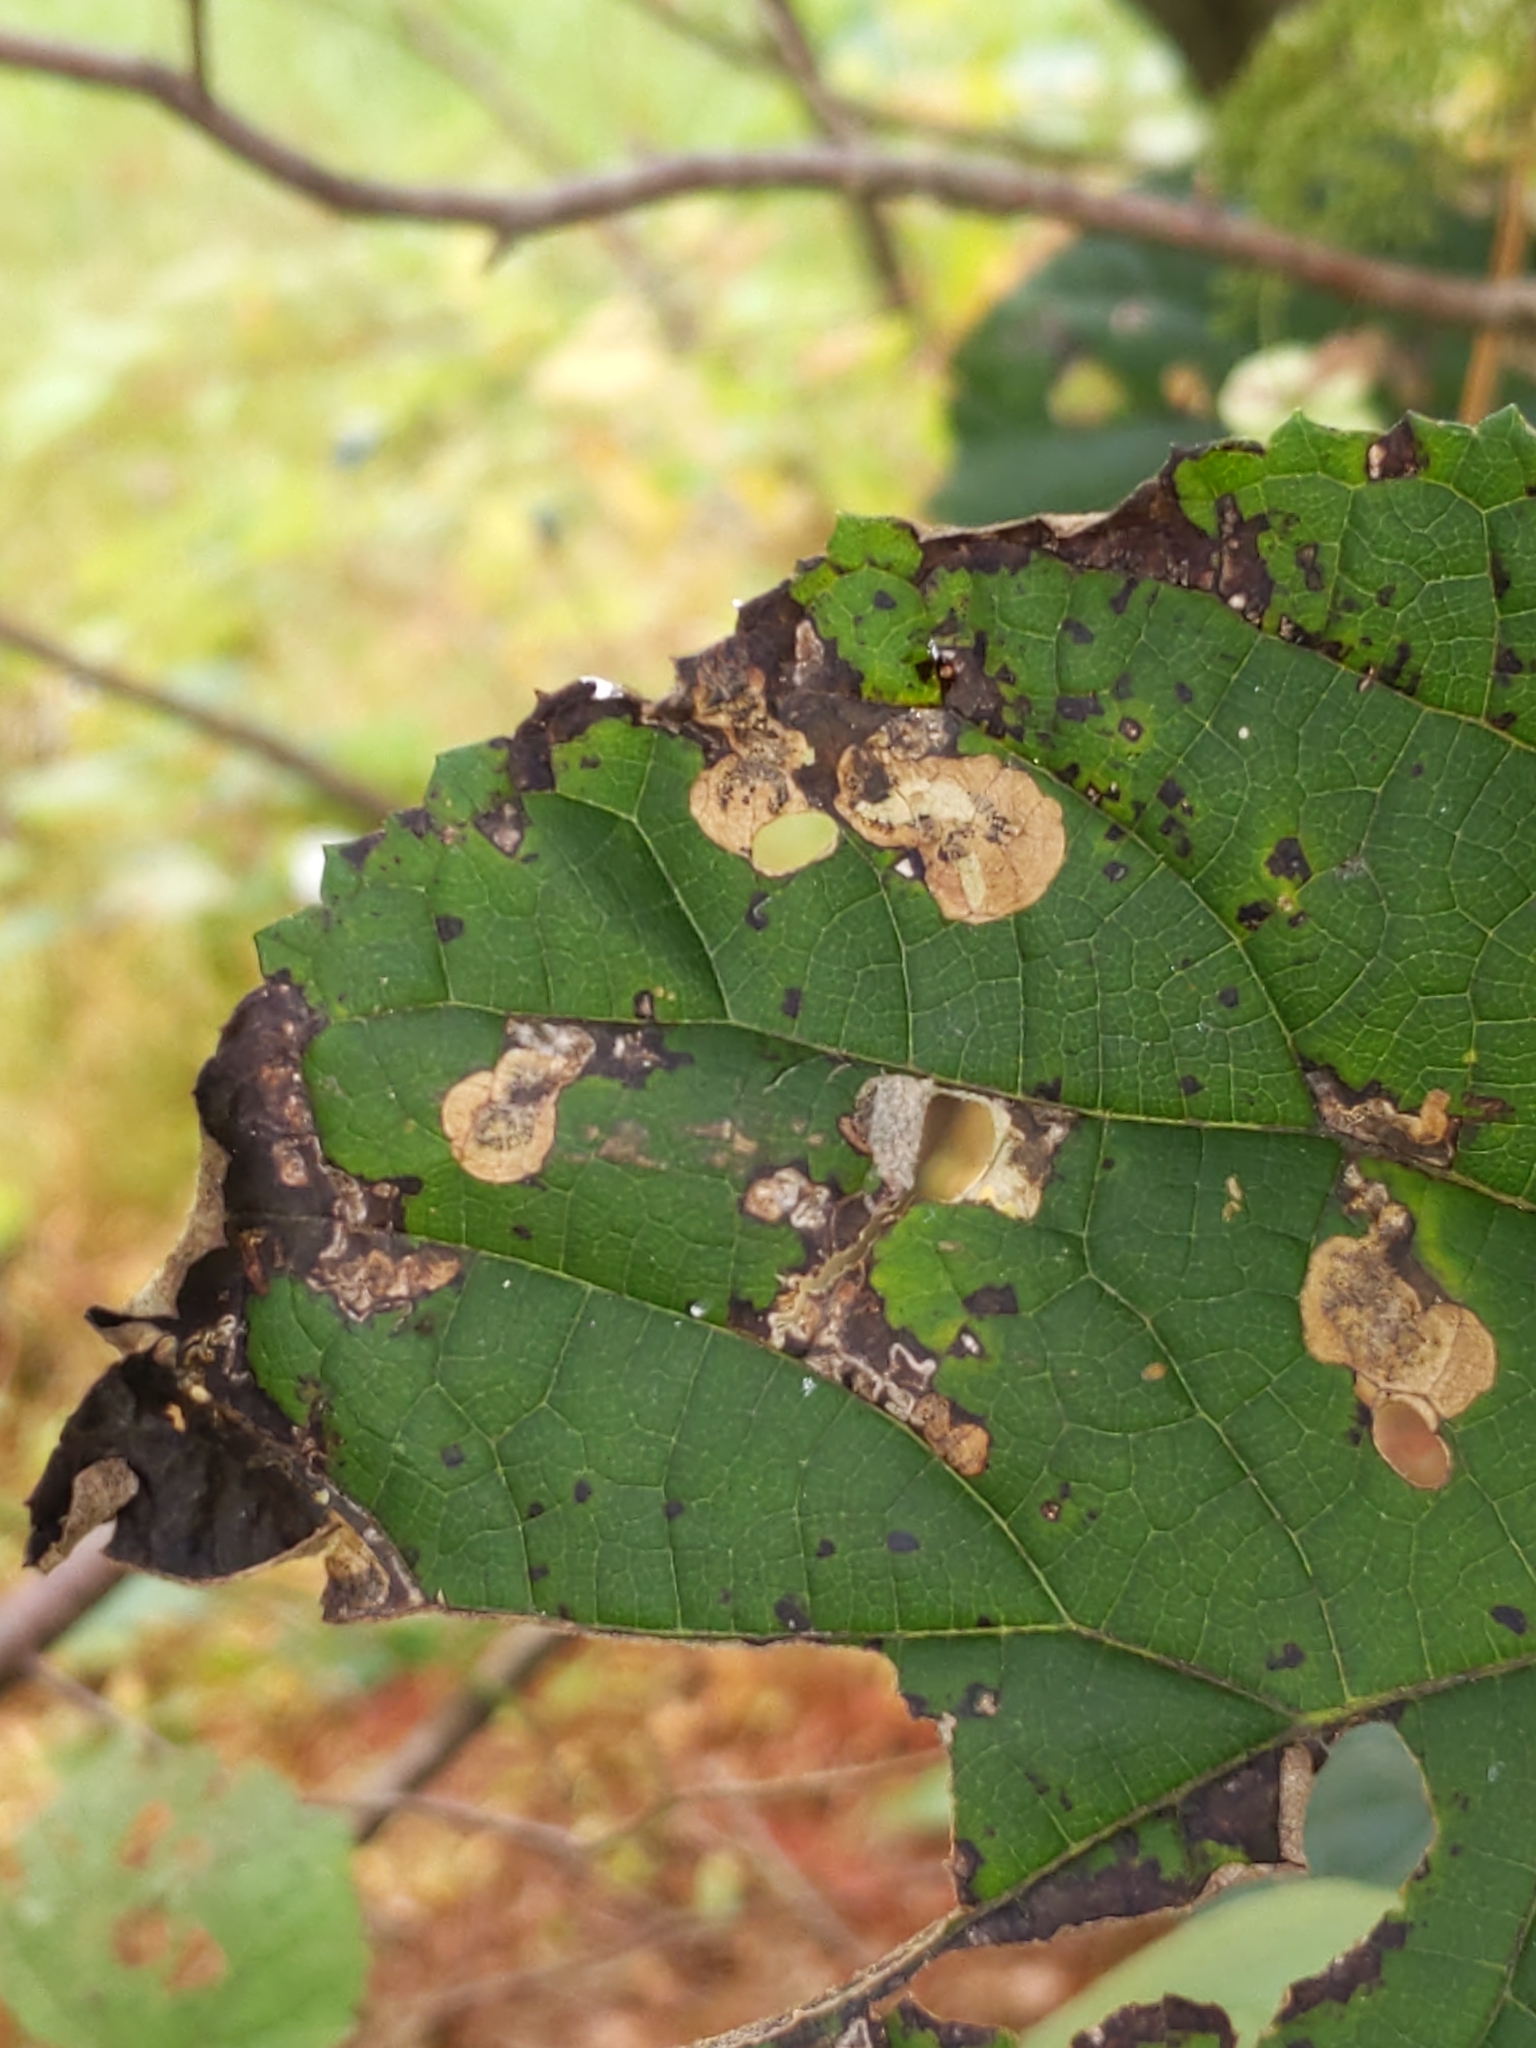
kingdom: Animalia
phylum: Arthropoda
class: Insecta
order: Lepidoptera
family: Heliozelidae
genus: Aspilanta
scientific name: Aspilanta hydrangaeella
